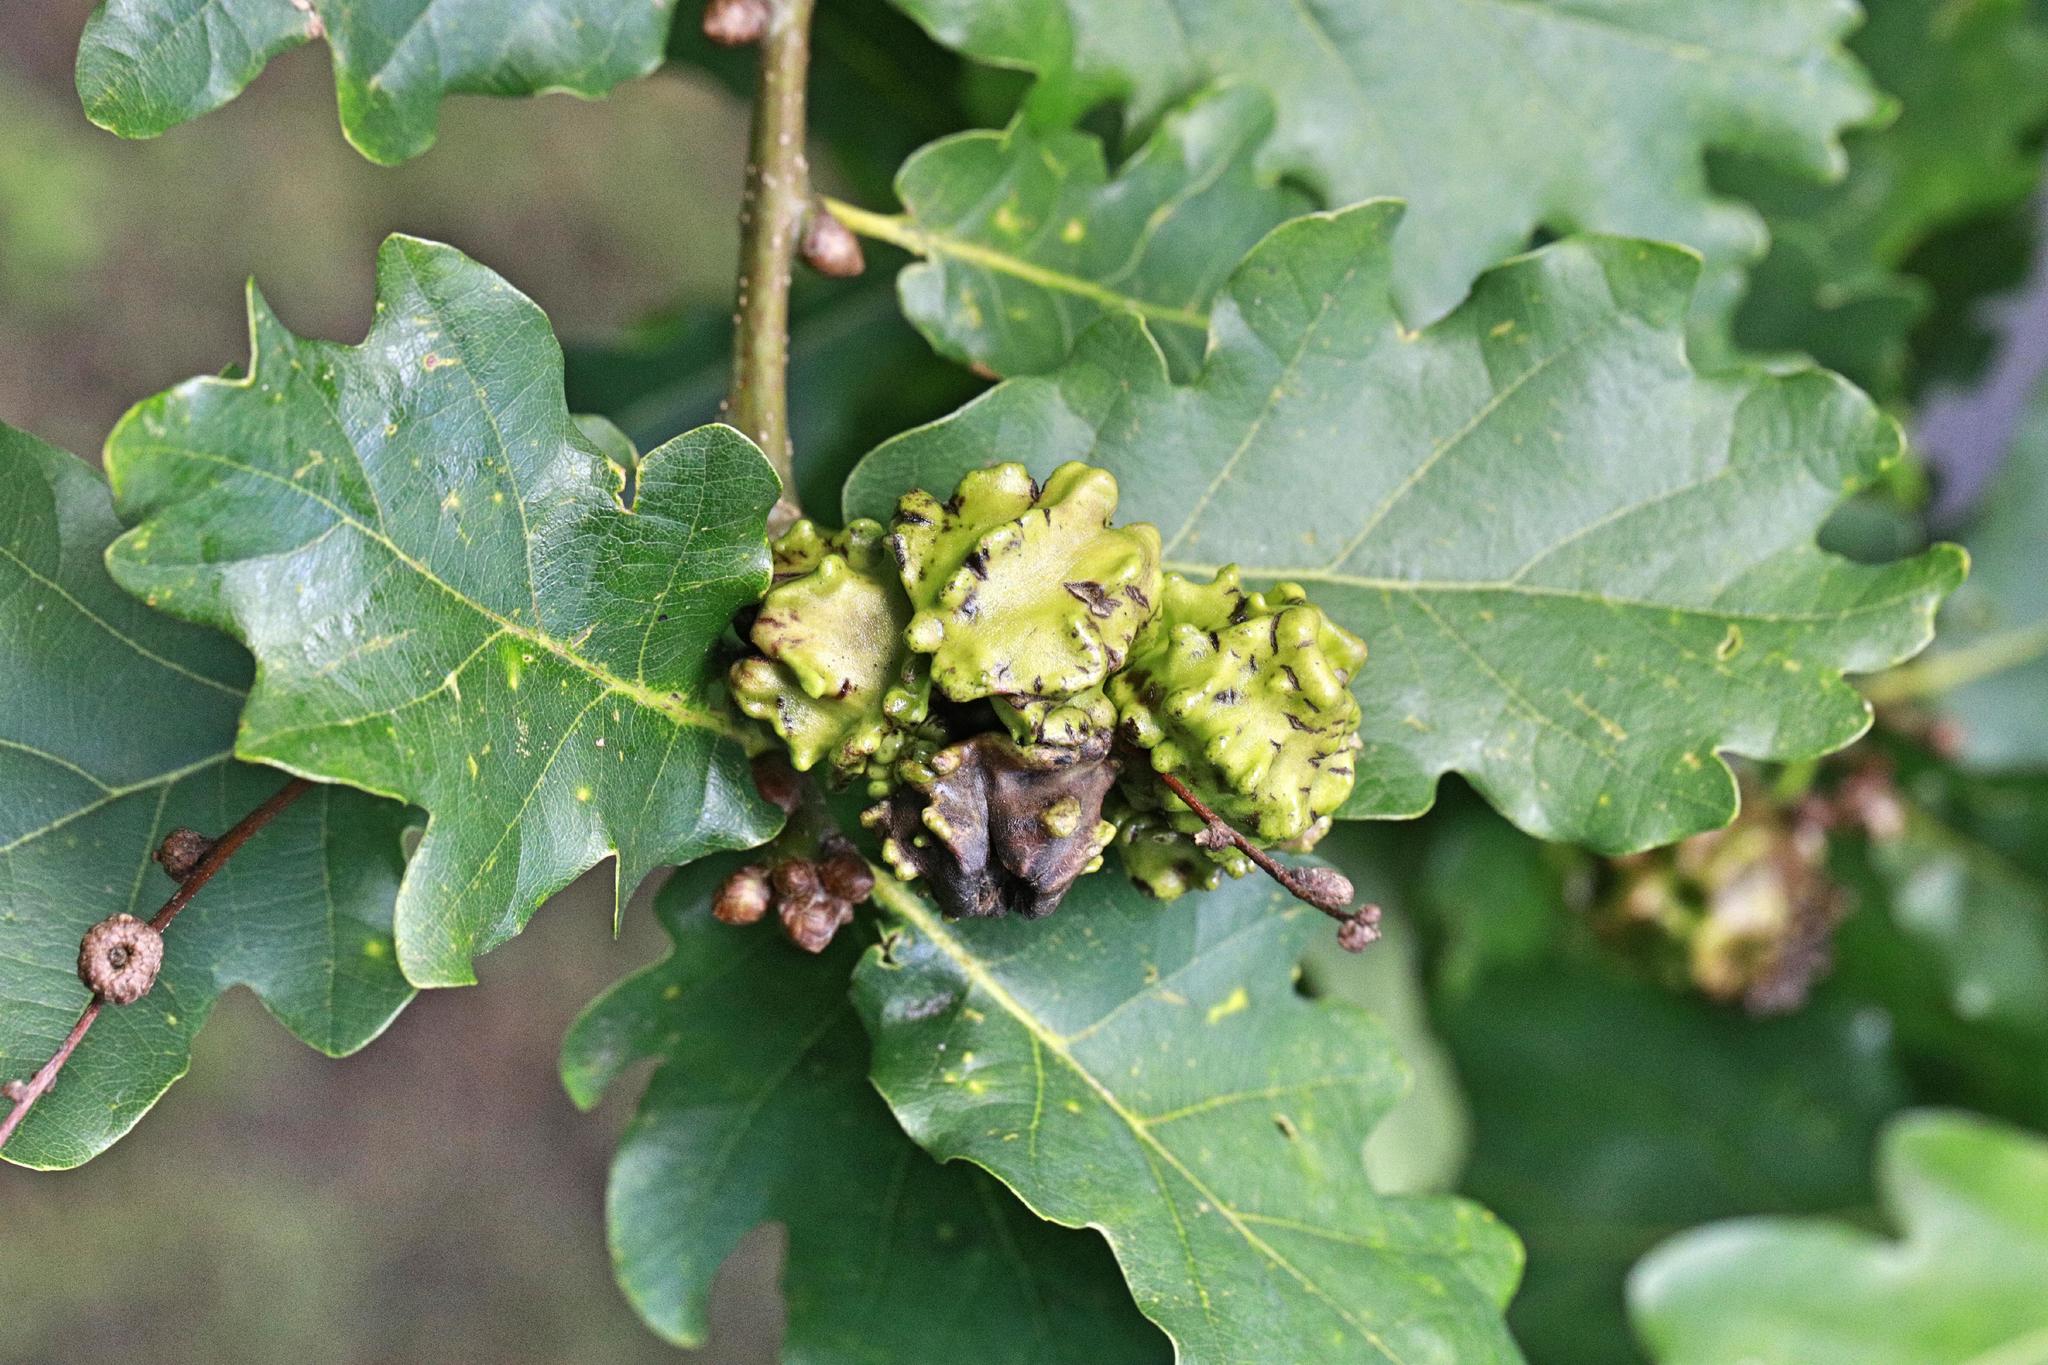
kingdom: Animalia
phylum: Arthropoda
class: Insecta
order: Hymenoptera
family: Cynipidae
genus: Andricus
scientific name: Andricus quercuscalicis
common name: Knopper gall
